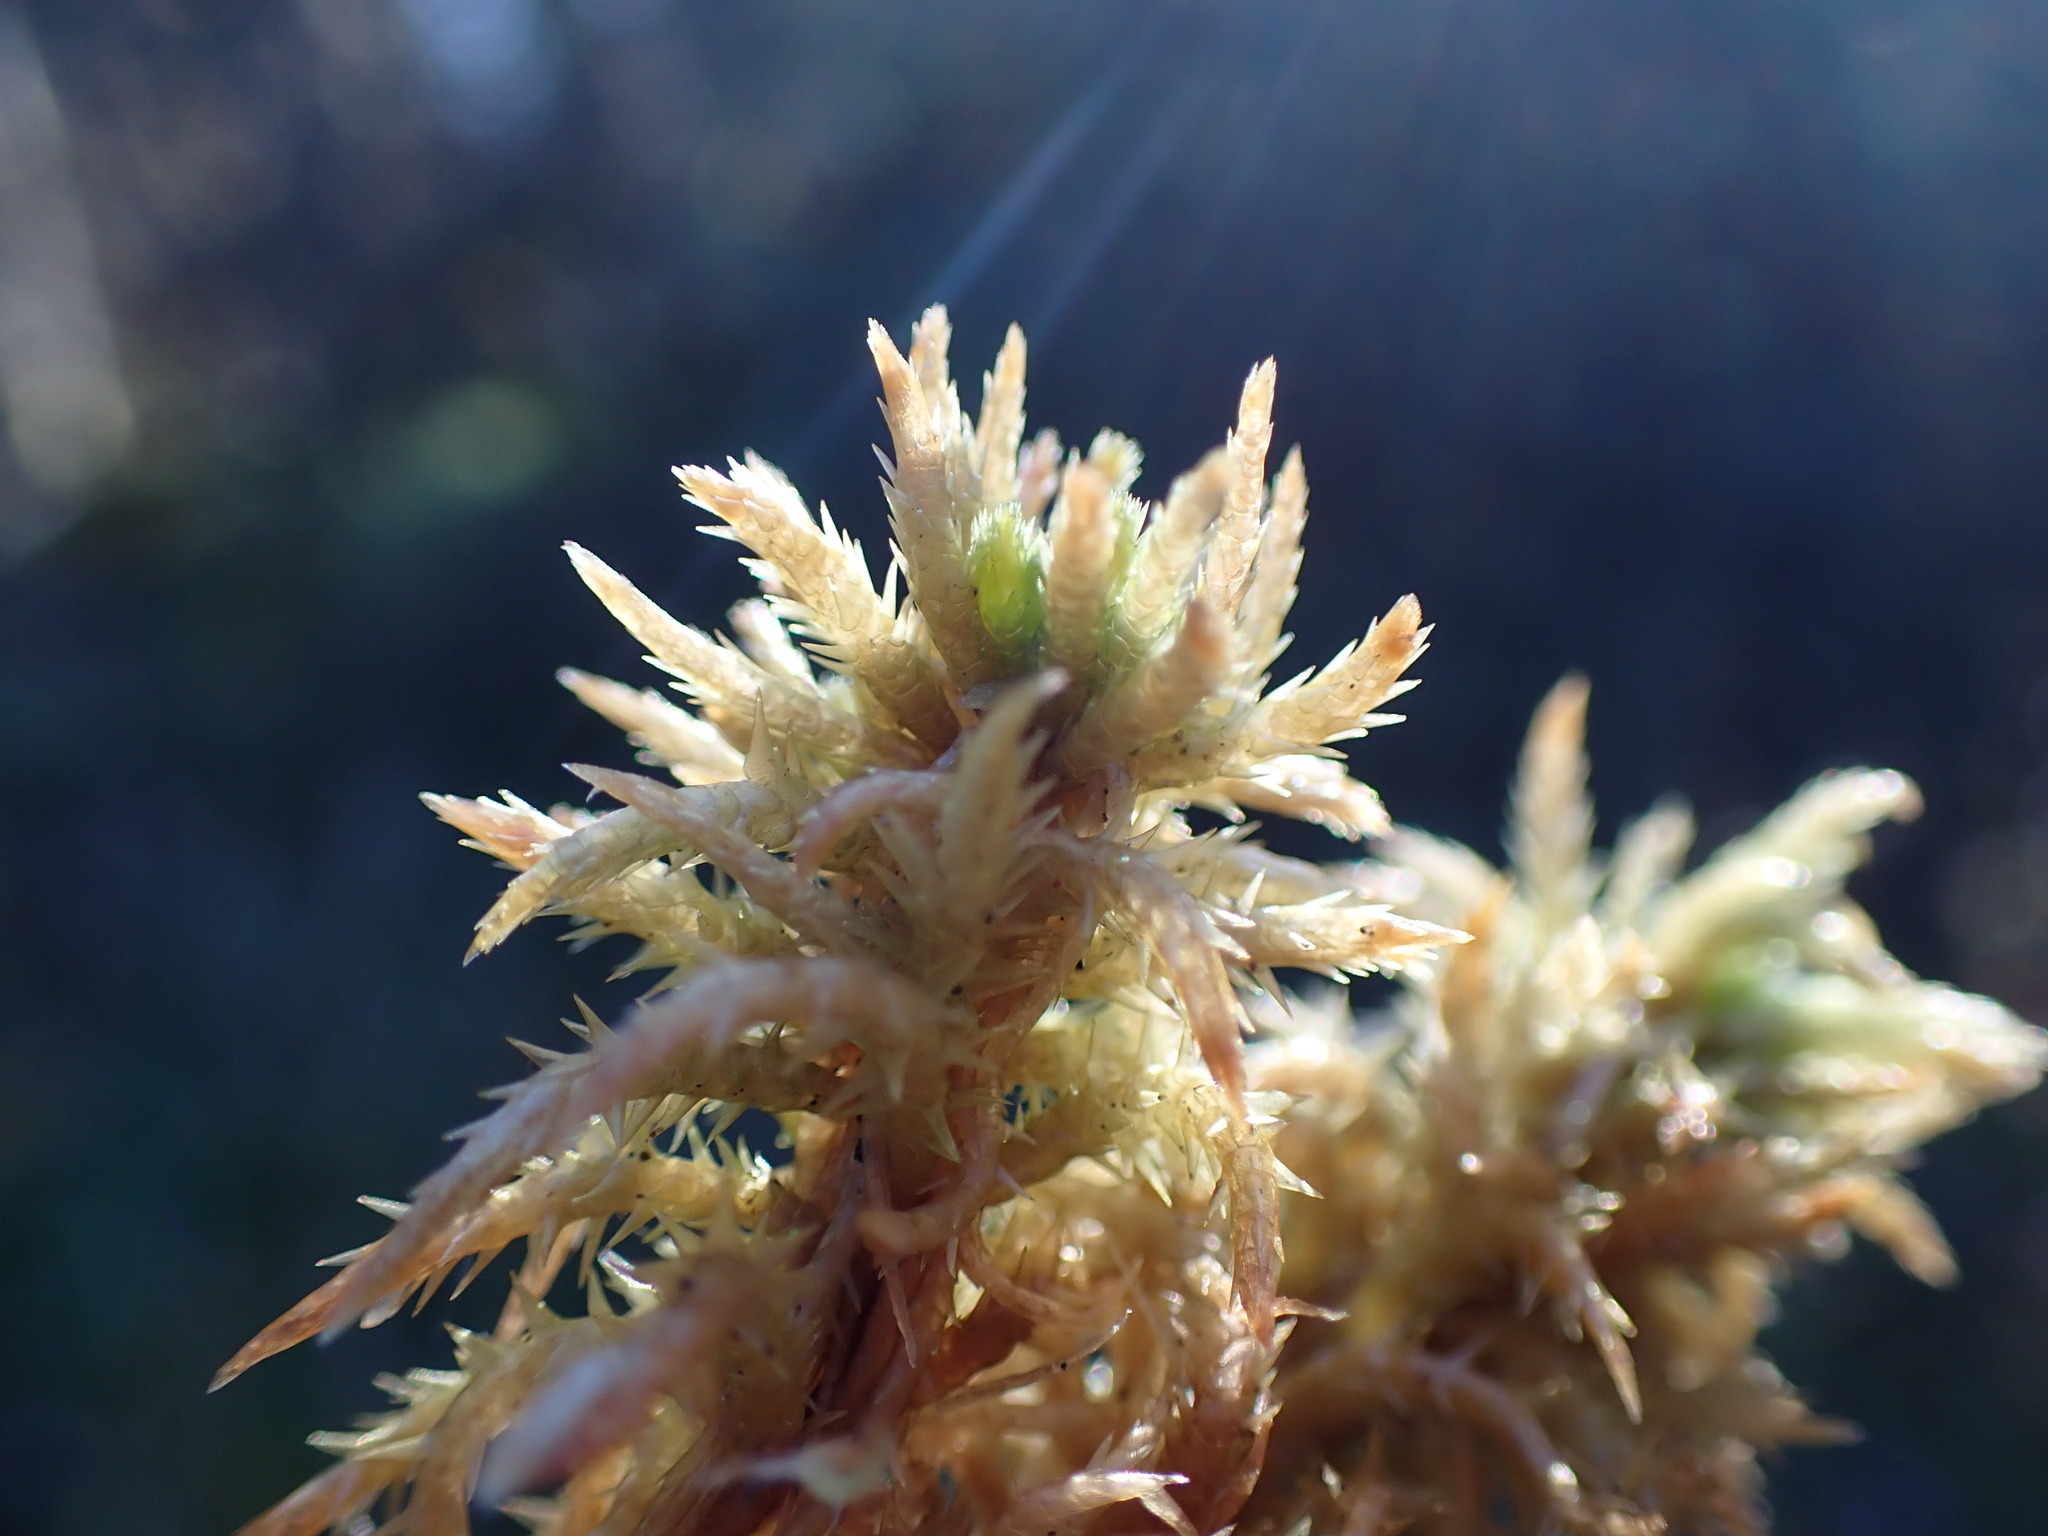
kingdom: Plantae
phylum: Bryophyta
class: Sphagnopsida
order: Sphagnales
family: Sphagnaceae
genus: Sphagnum
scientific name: Sphagnum squarrosum
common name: Shaggy peat moss
